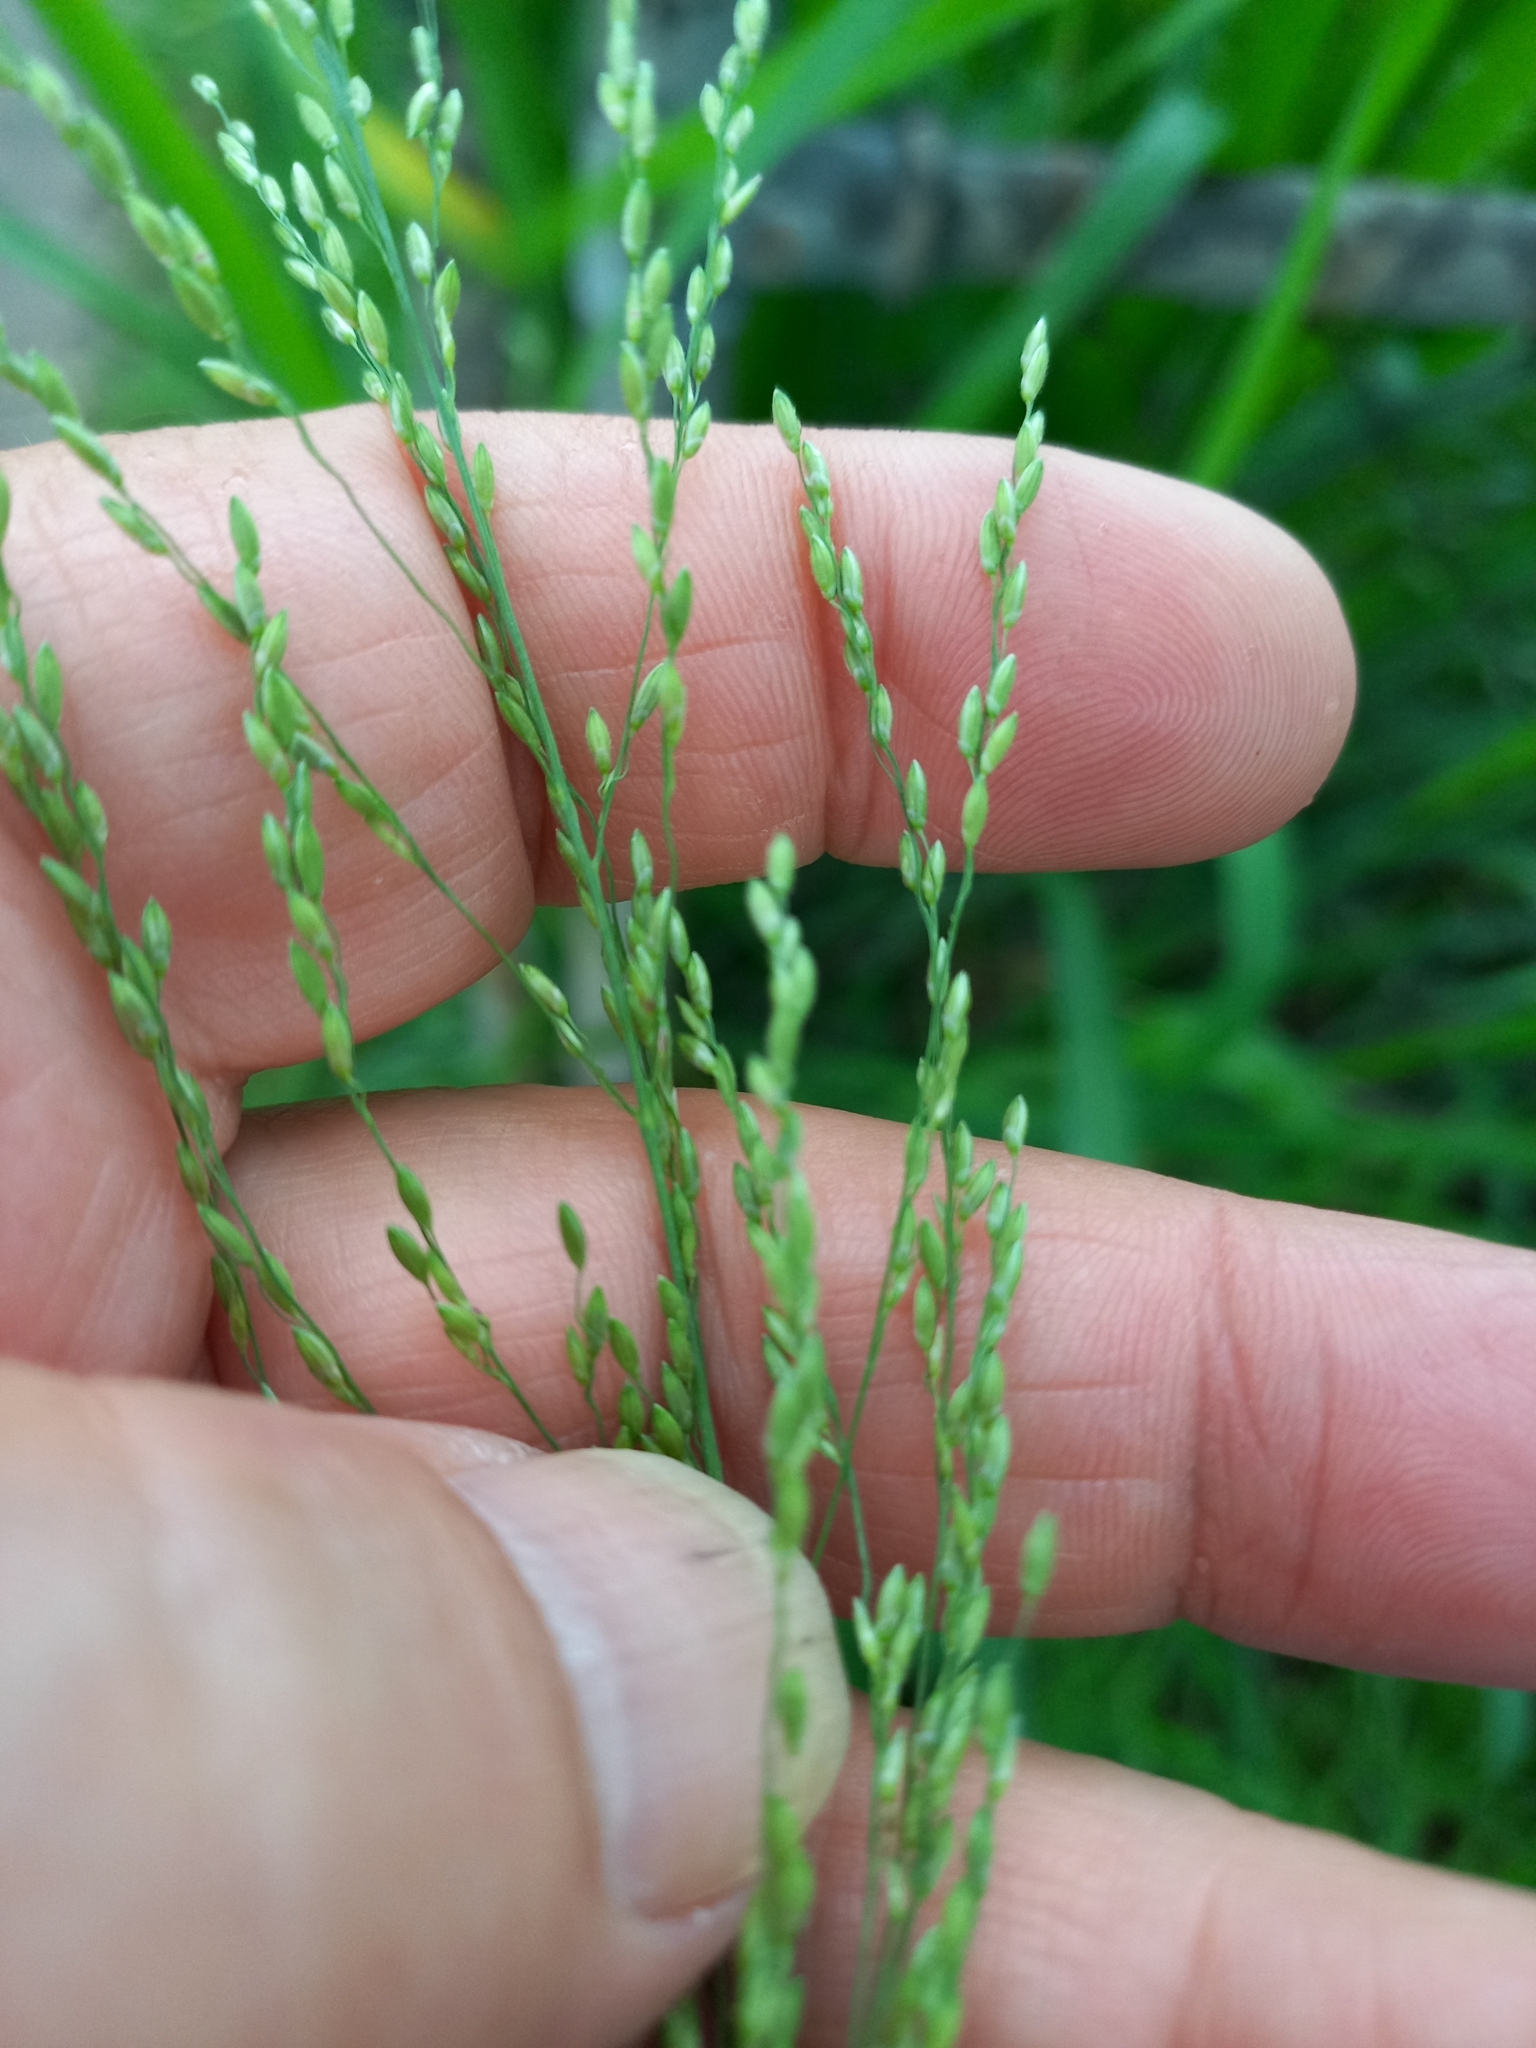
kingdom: Plantae
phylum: Tracheophyta
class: Liliopsida
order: Poales
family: Poaceae
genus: Megathyrsus
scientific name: Megathyrsus maximus
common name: Guineagrass
